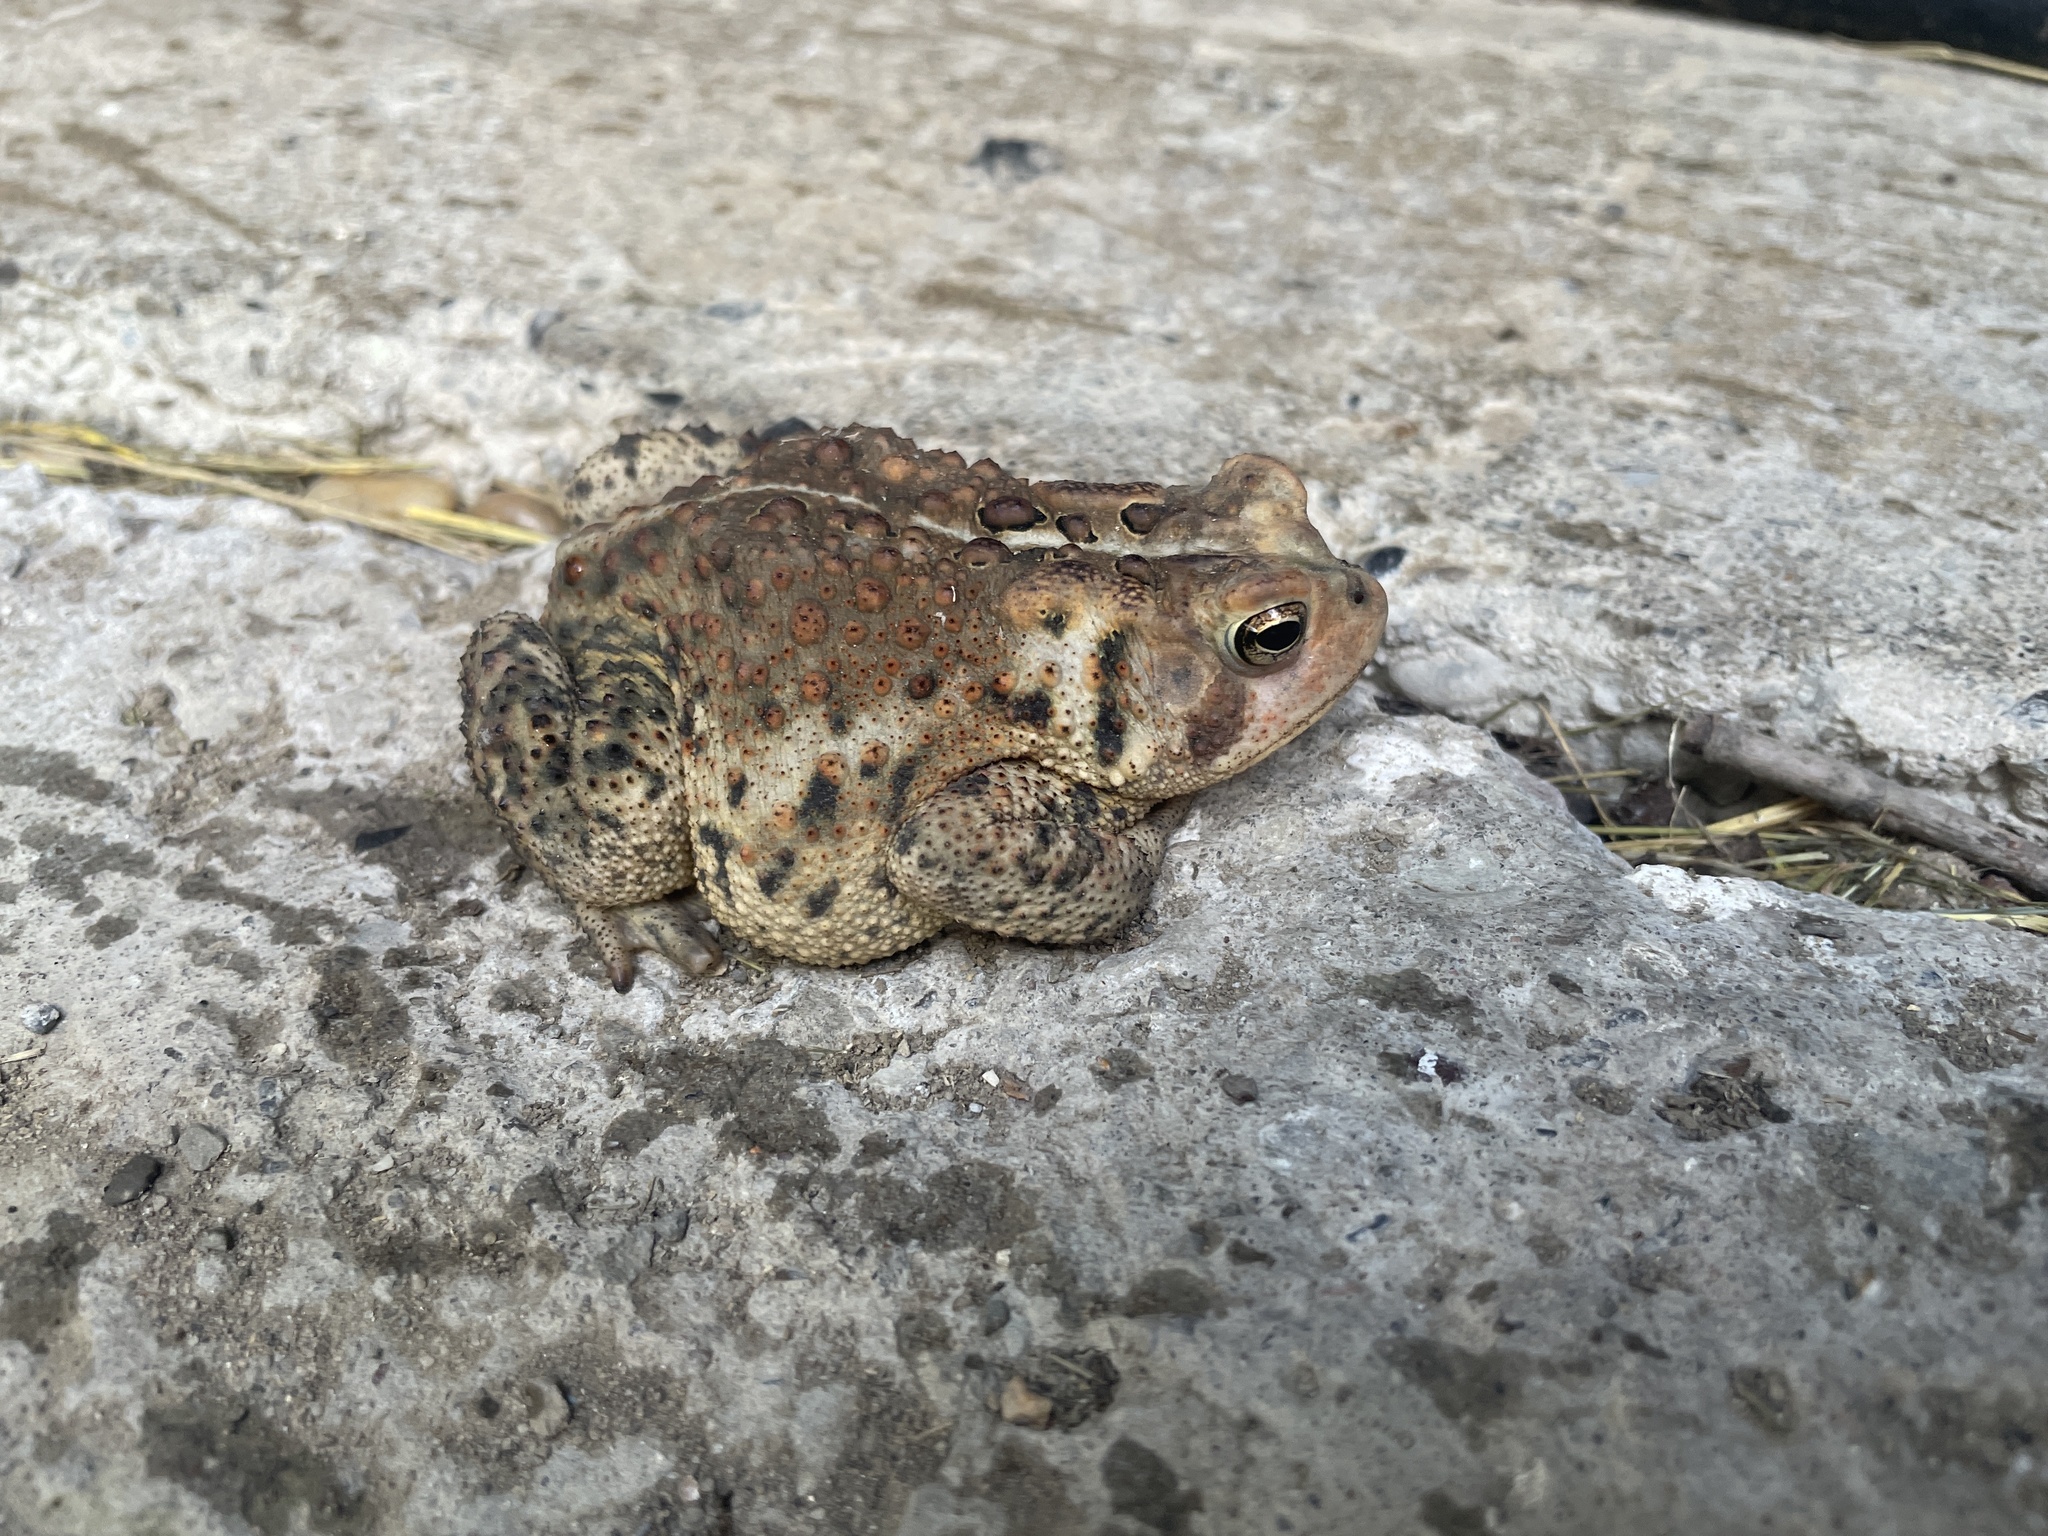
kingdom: Animalia
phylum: Chordata
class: Amphibia
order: Anura
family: Bufonidae
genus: Anaxyrus
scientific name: Anaxyrus americanus
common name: American toad
